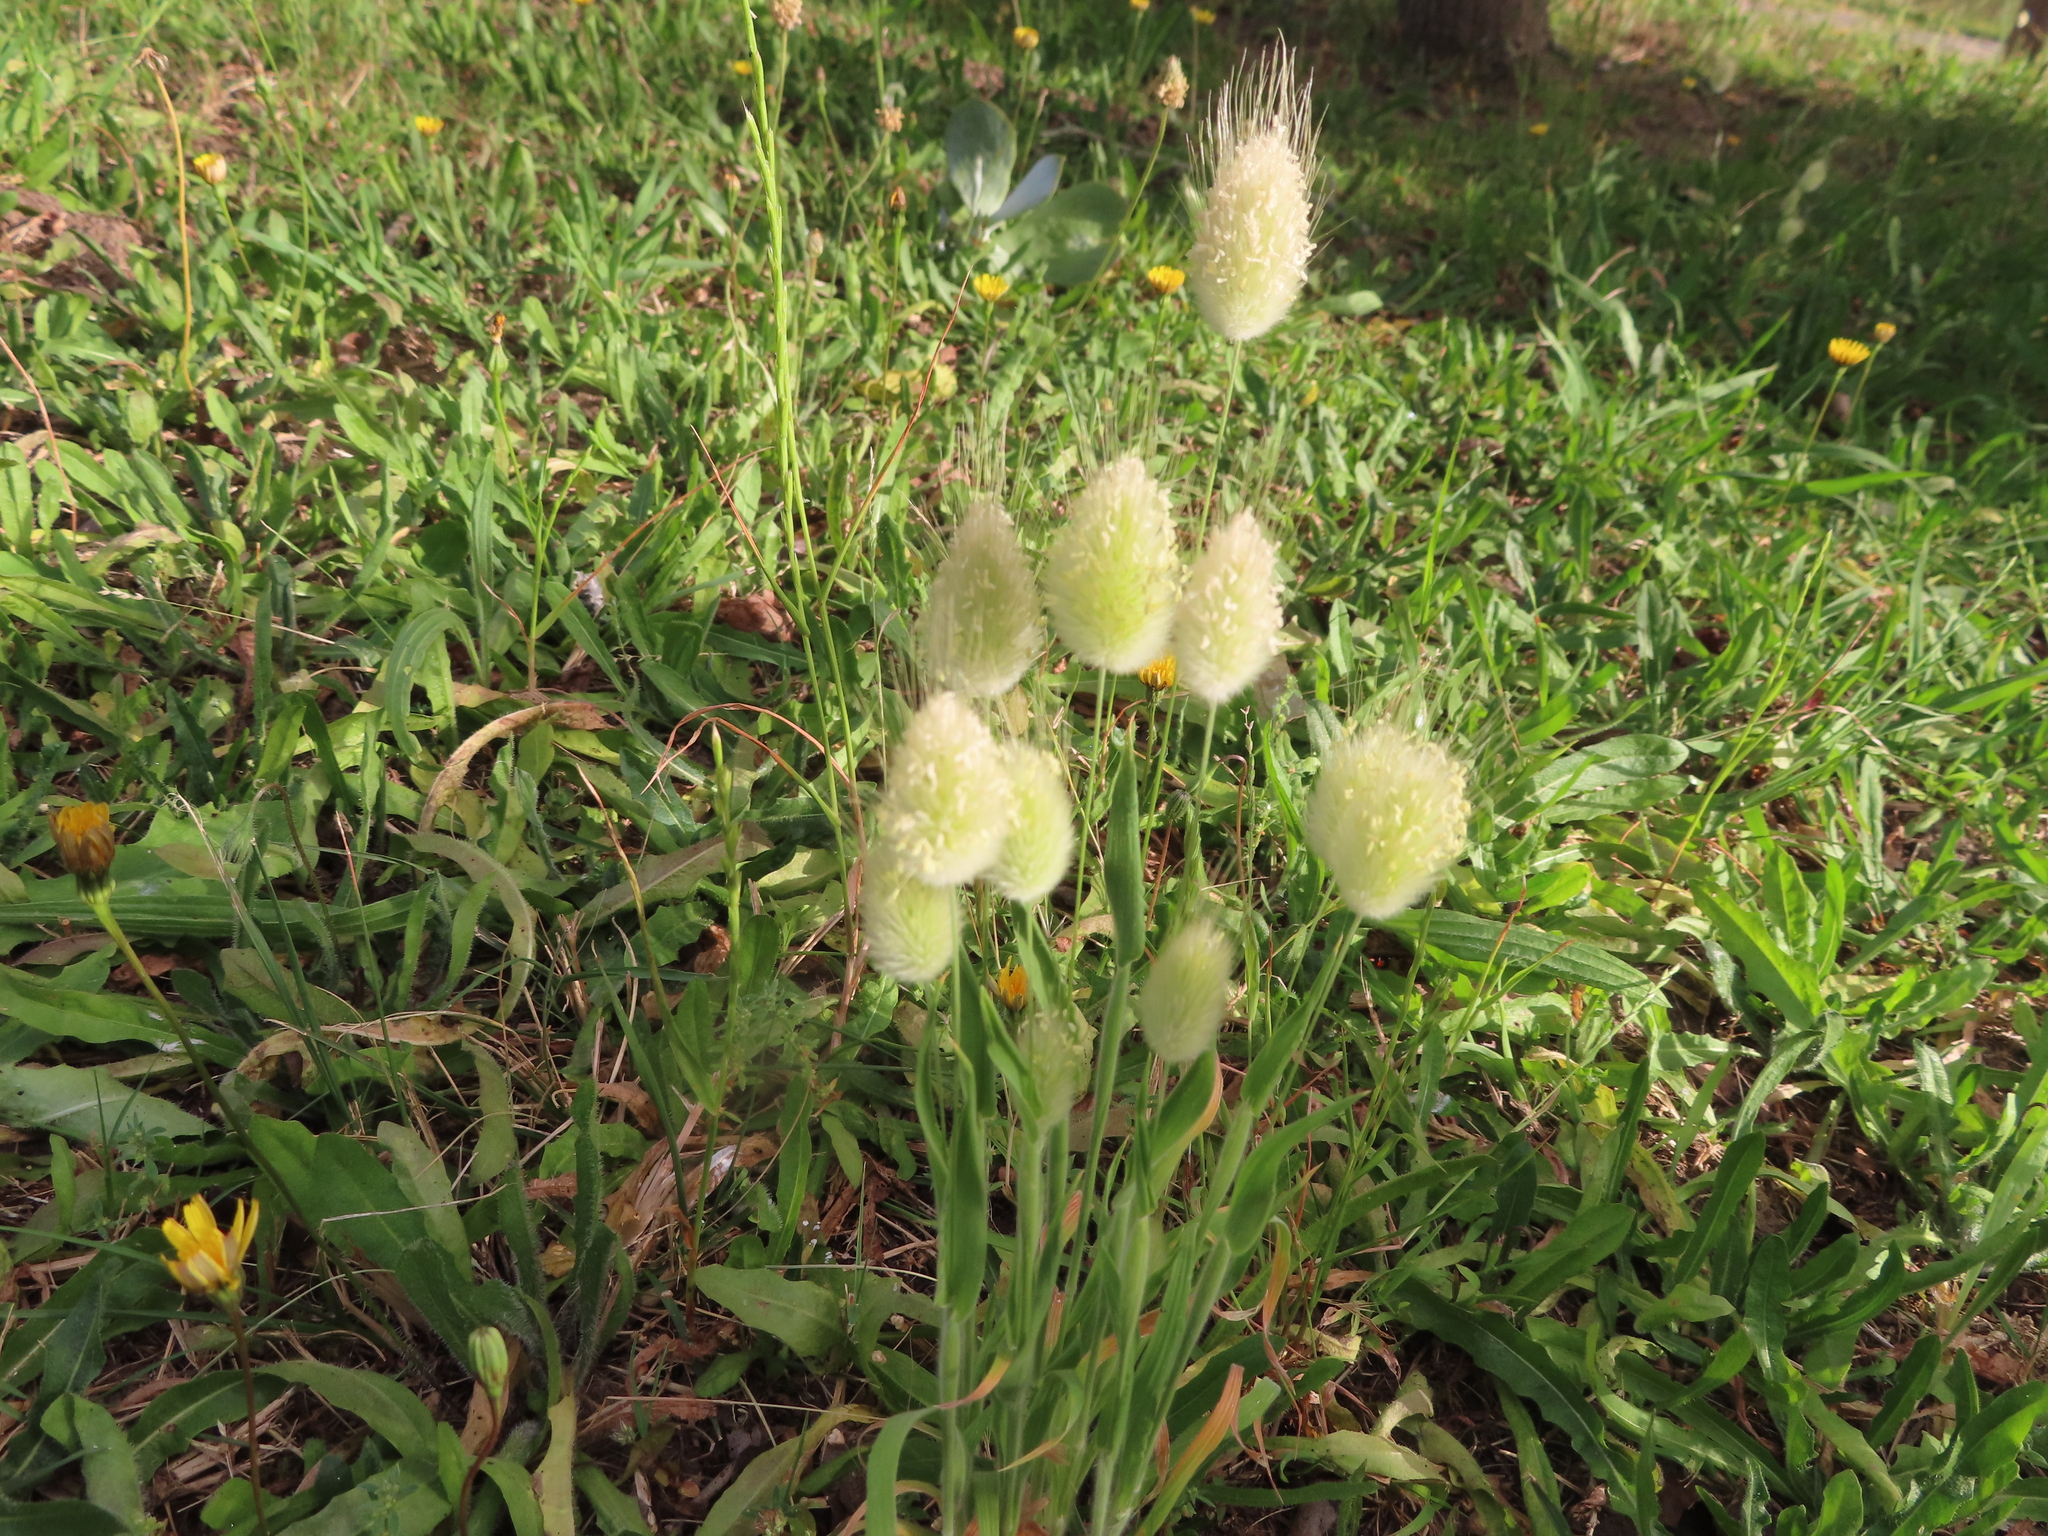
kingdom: Plantae
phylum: Tracheophyta
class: Liliopsida
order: Poales
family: Poaceae
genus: Lagurus
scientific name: Lagurus ovatus
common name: Hare's-tail
